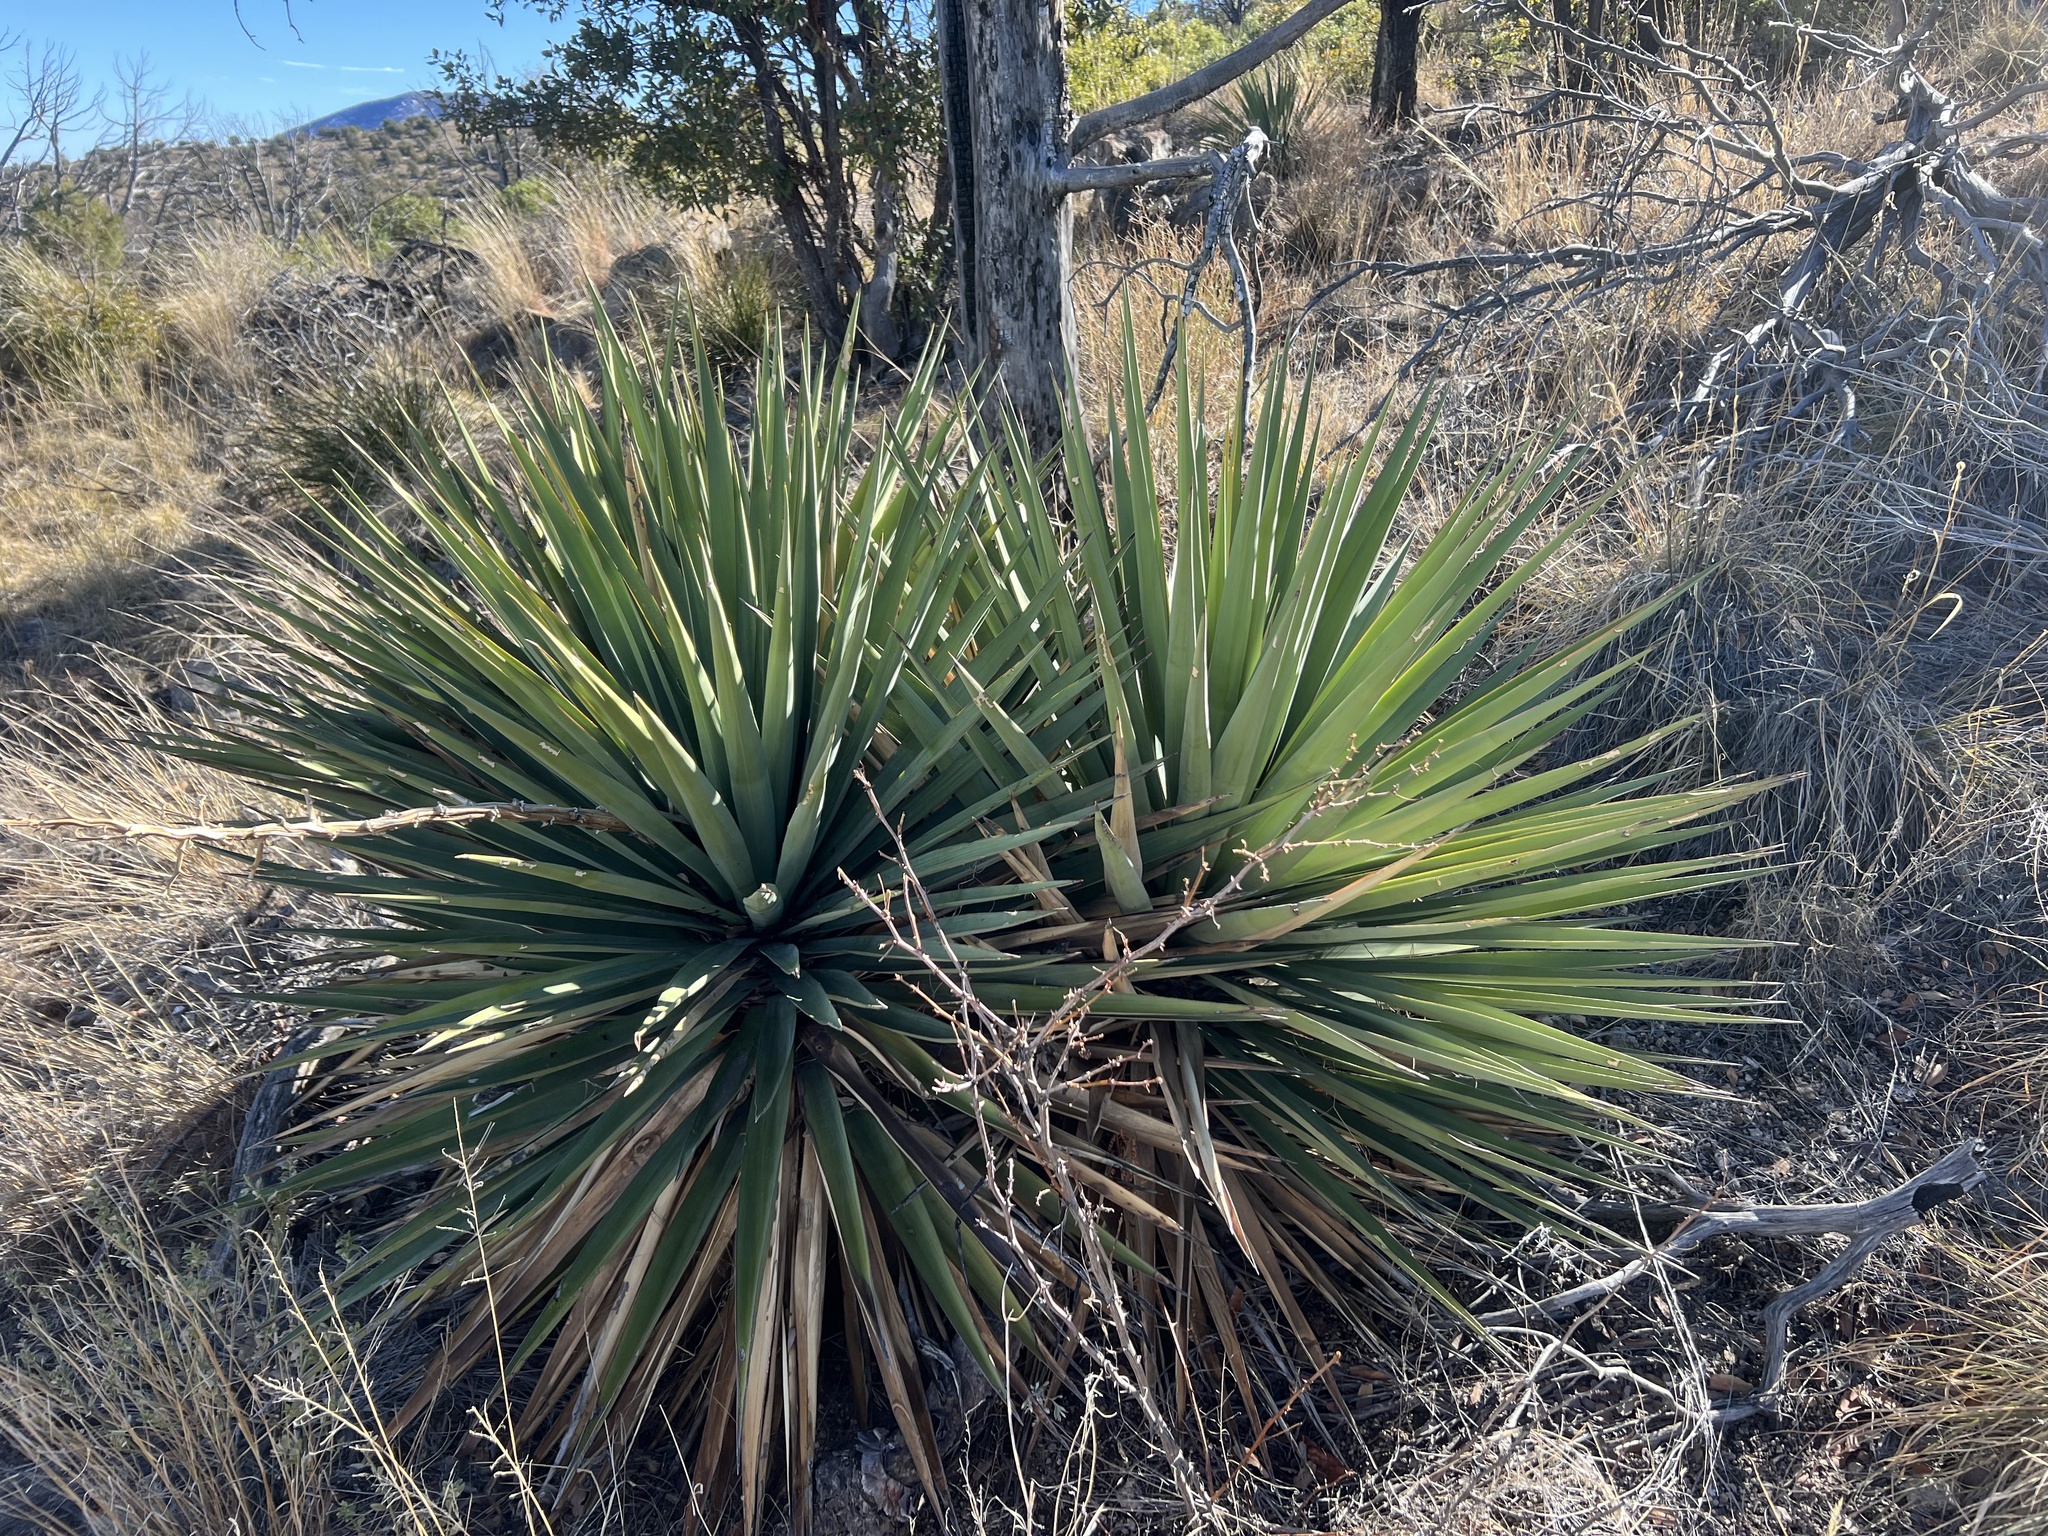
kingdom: Plantae
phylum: Tracheophyta
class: Liliopsida
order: Asparagales
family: Asparagaceae
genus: Yucca
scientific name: Yucca madrensis
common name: Hoary yucca
